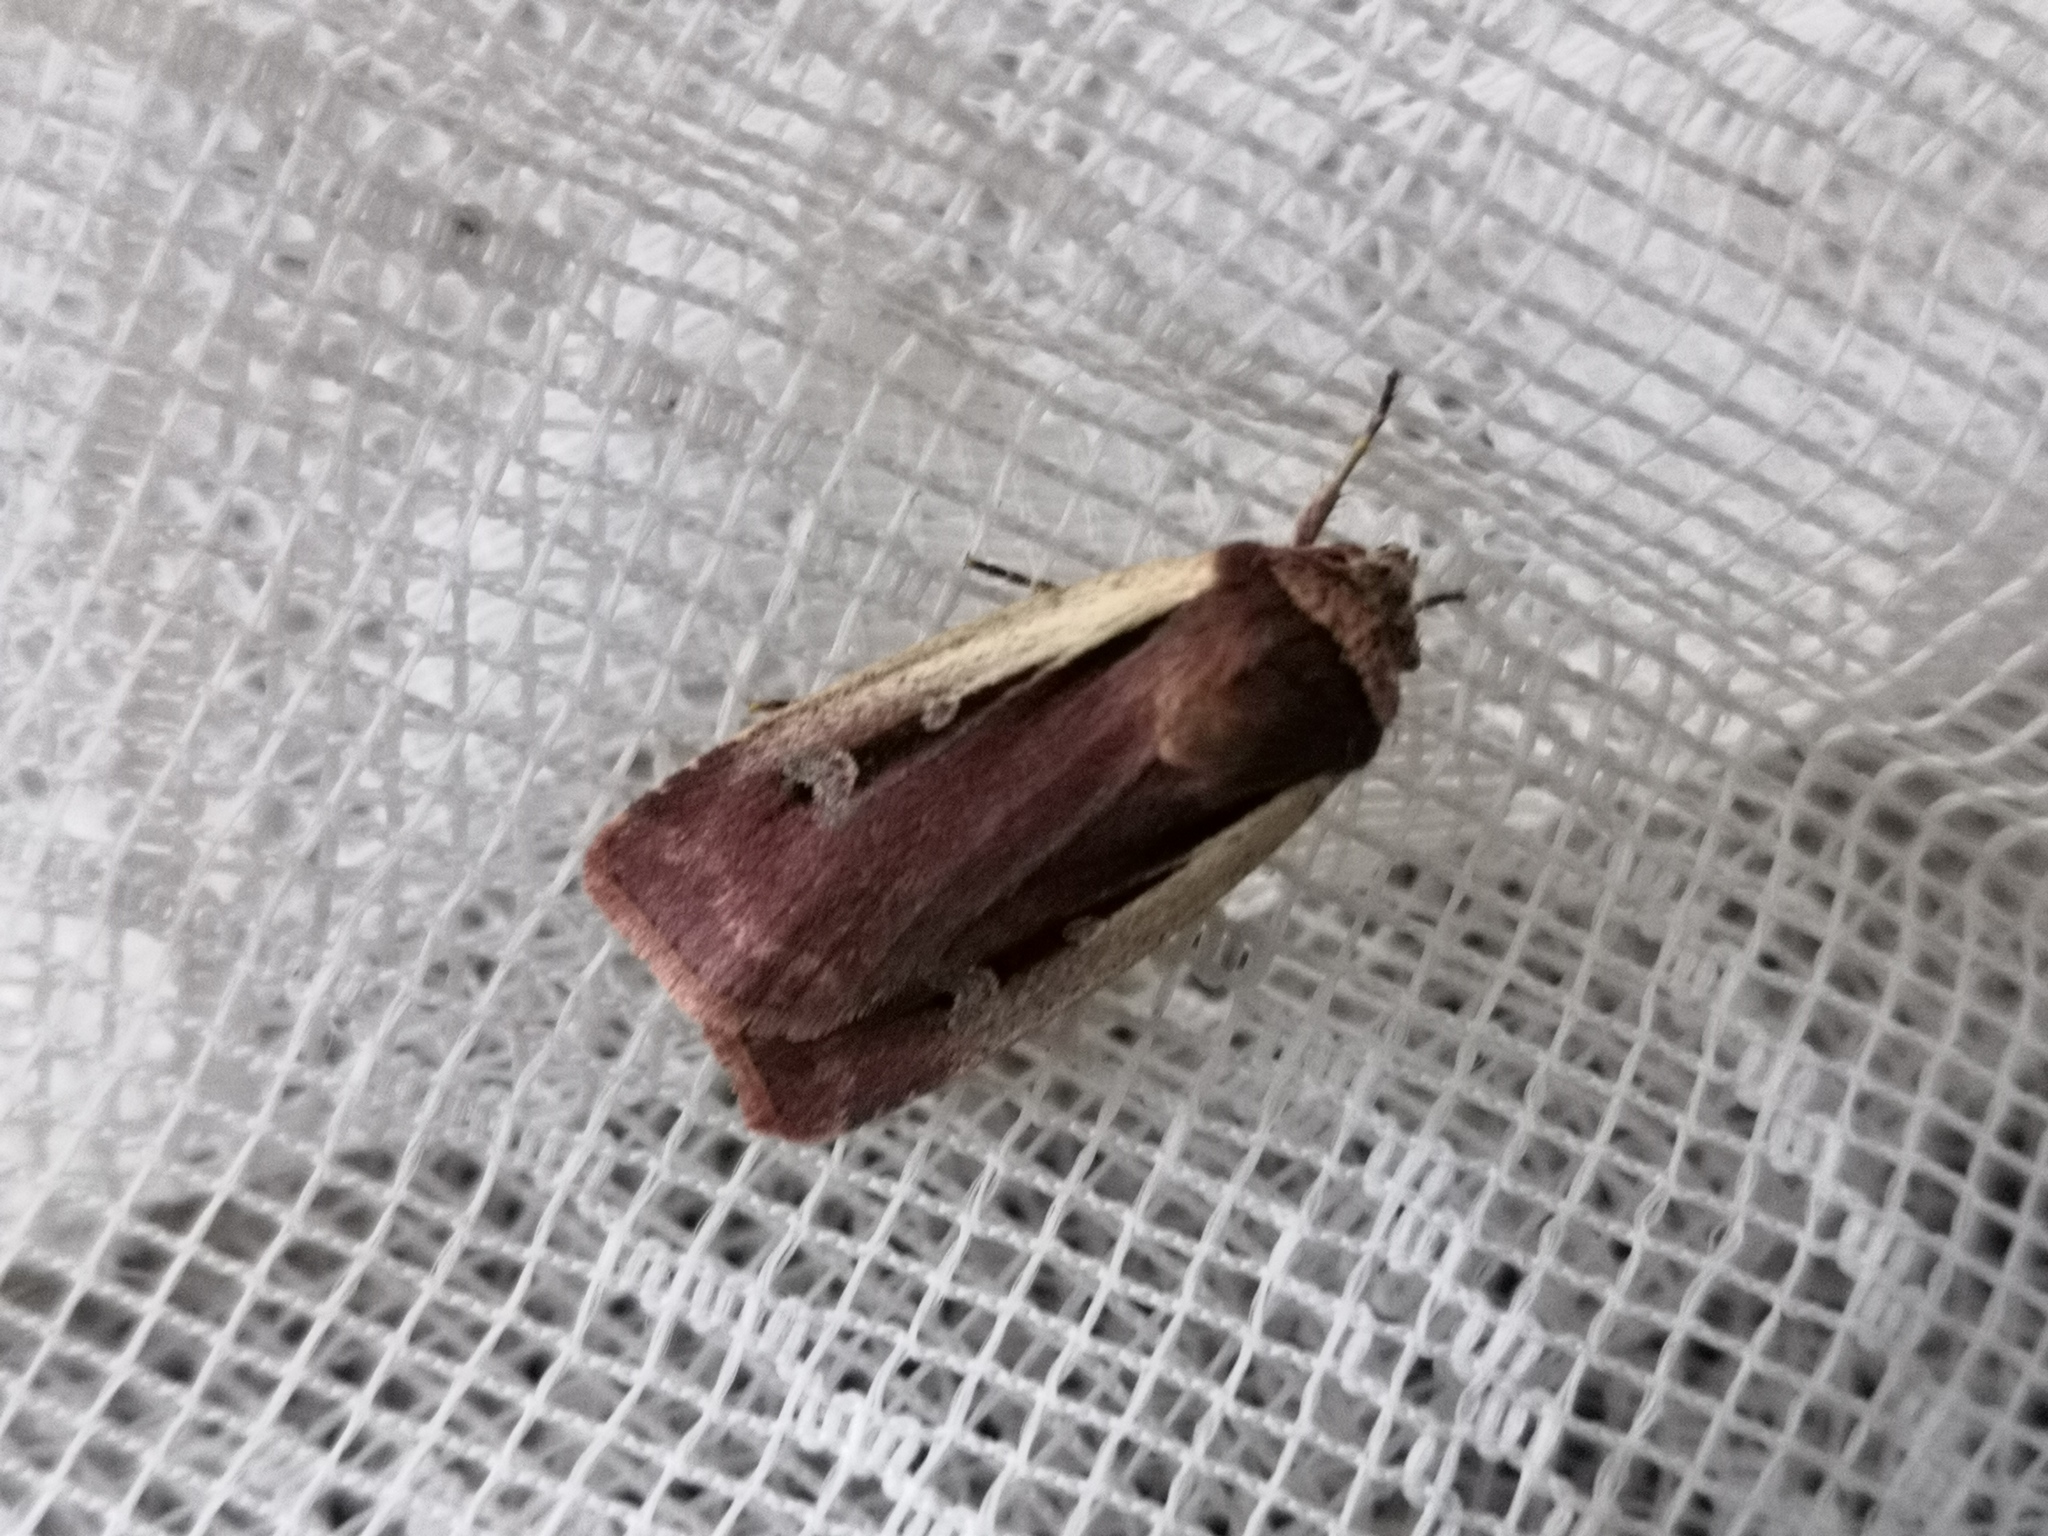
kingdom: Animalia
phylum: Arthropoda
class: Insecta
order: Lepidoptera
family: Noctuidae
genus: Ochropleura
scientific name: Ochropleura plecta
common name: Flame shoulder
